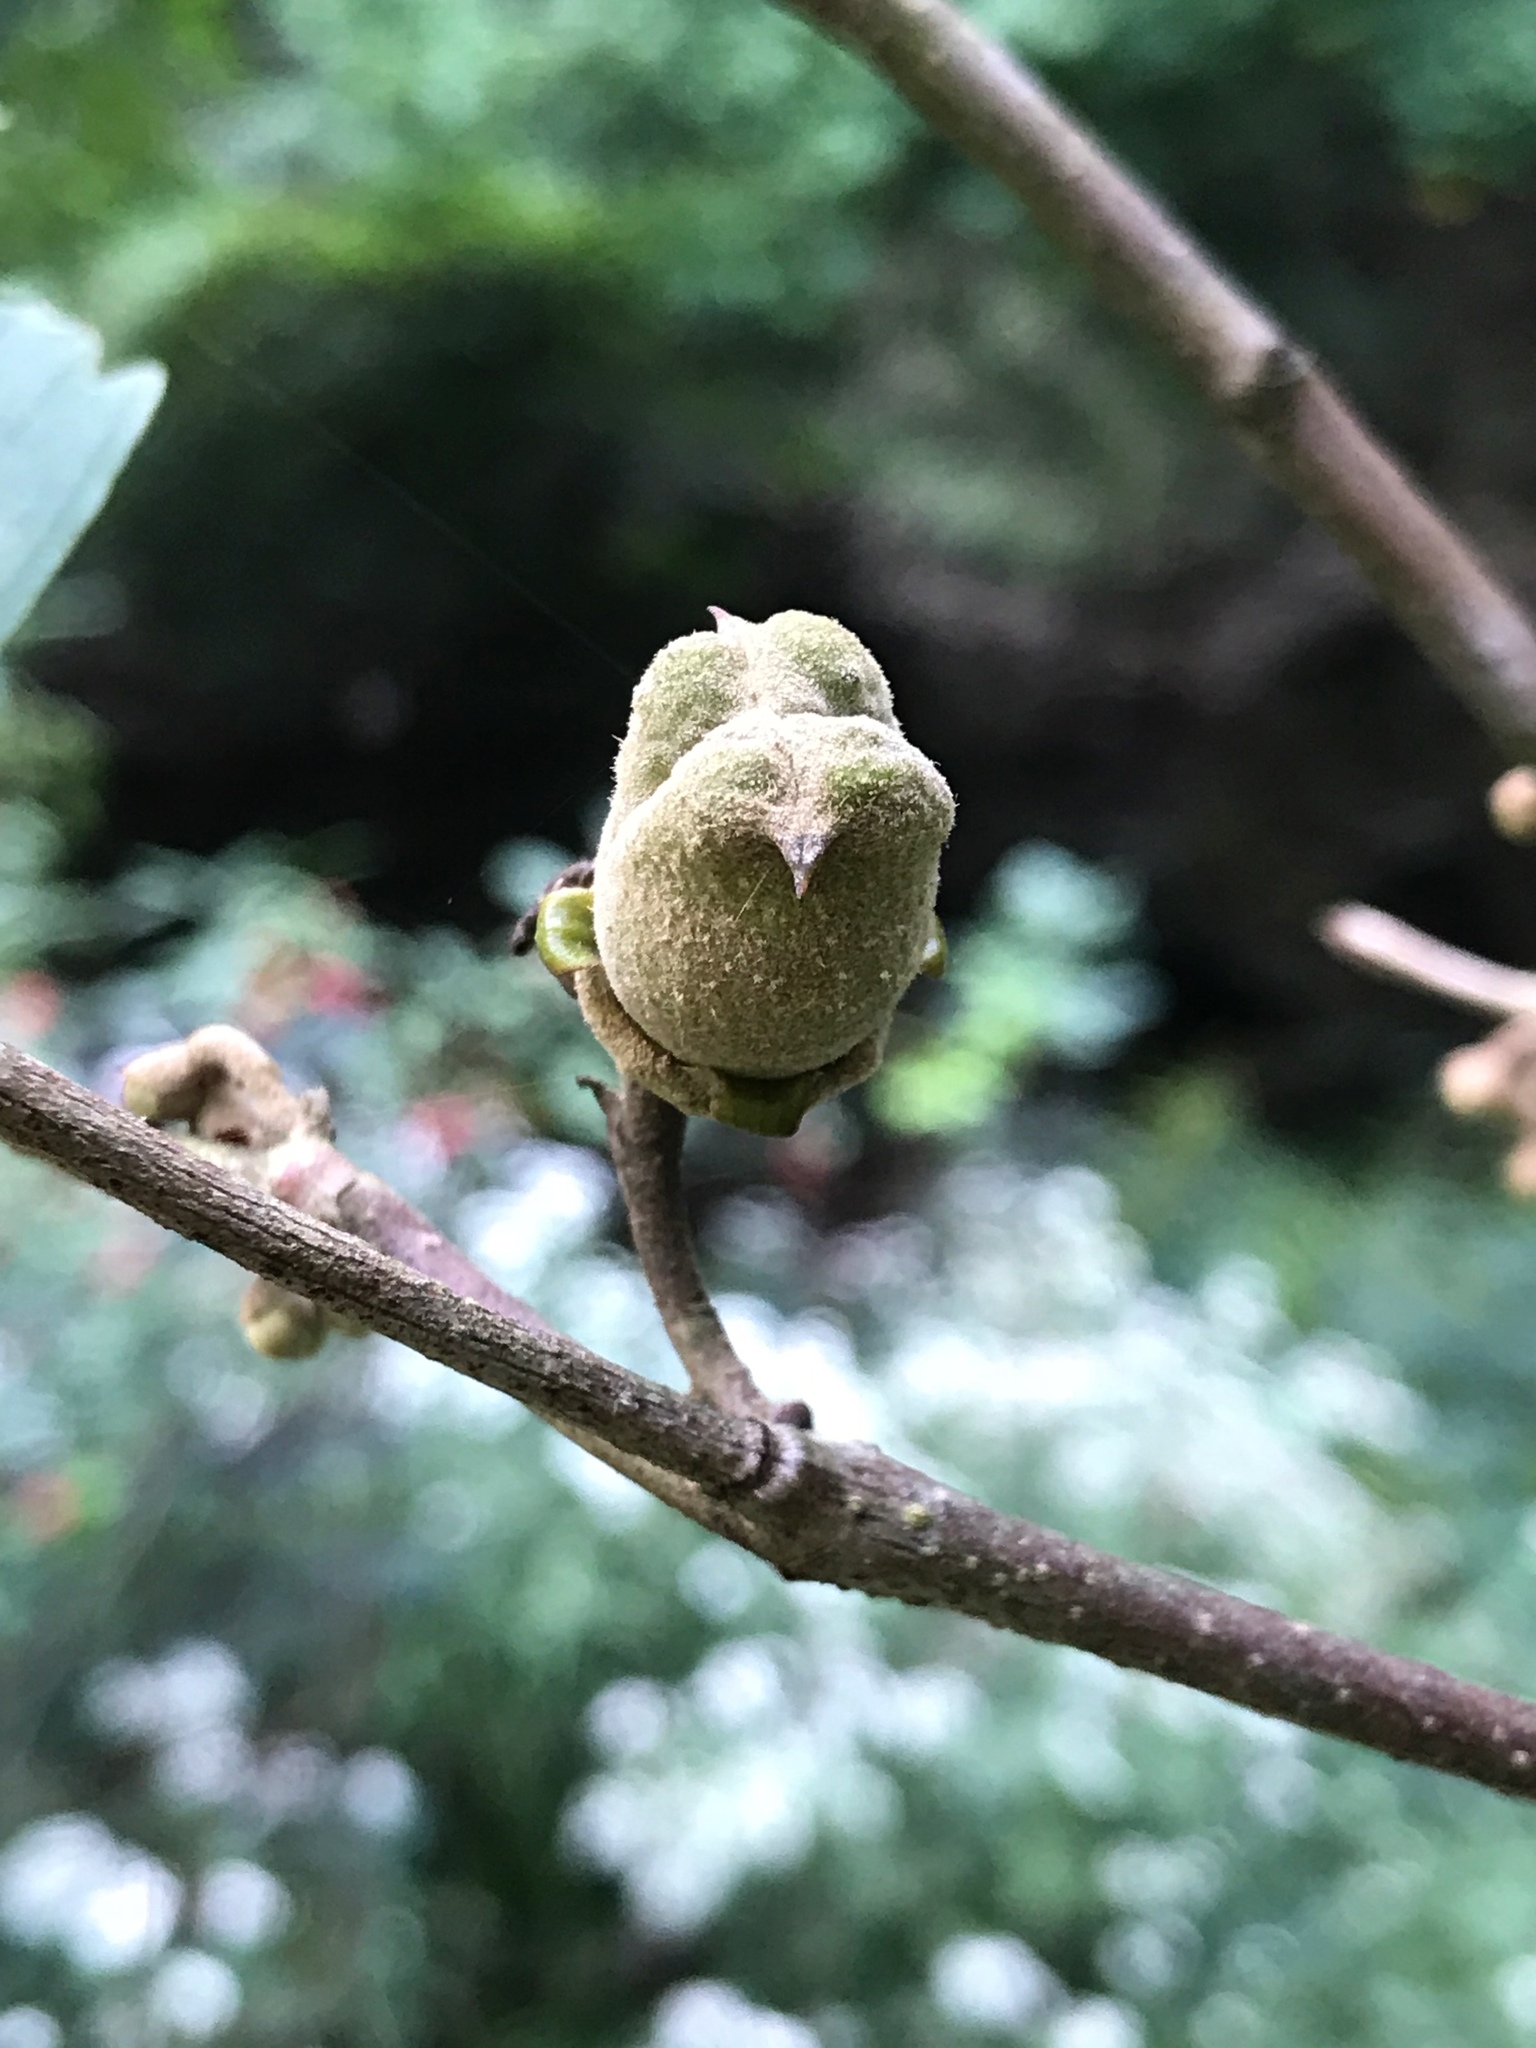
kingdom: Plantae
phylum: Tracheophyta
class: Magnoliopsida
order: Saxifragales
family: Hamamelidaceae
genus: Hamamelis
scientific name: Hamamelis virginiana
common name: Witch-hazel
